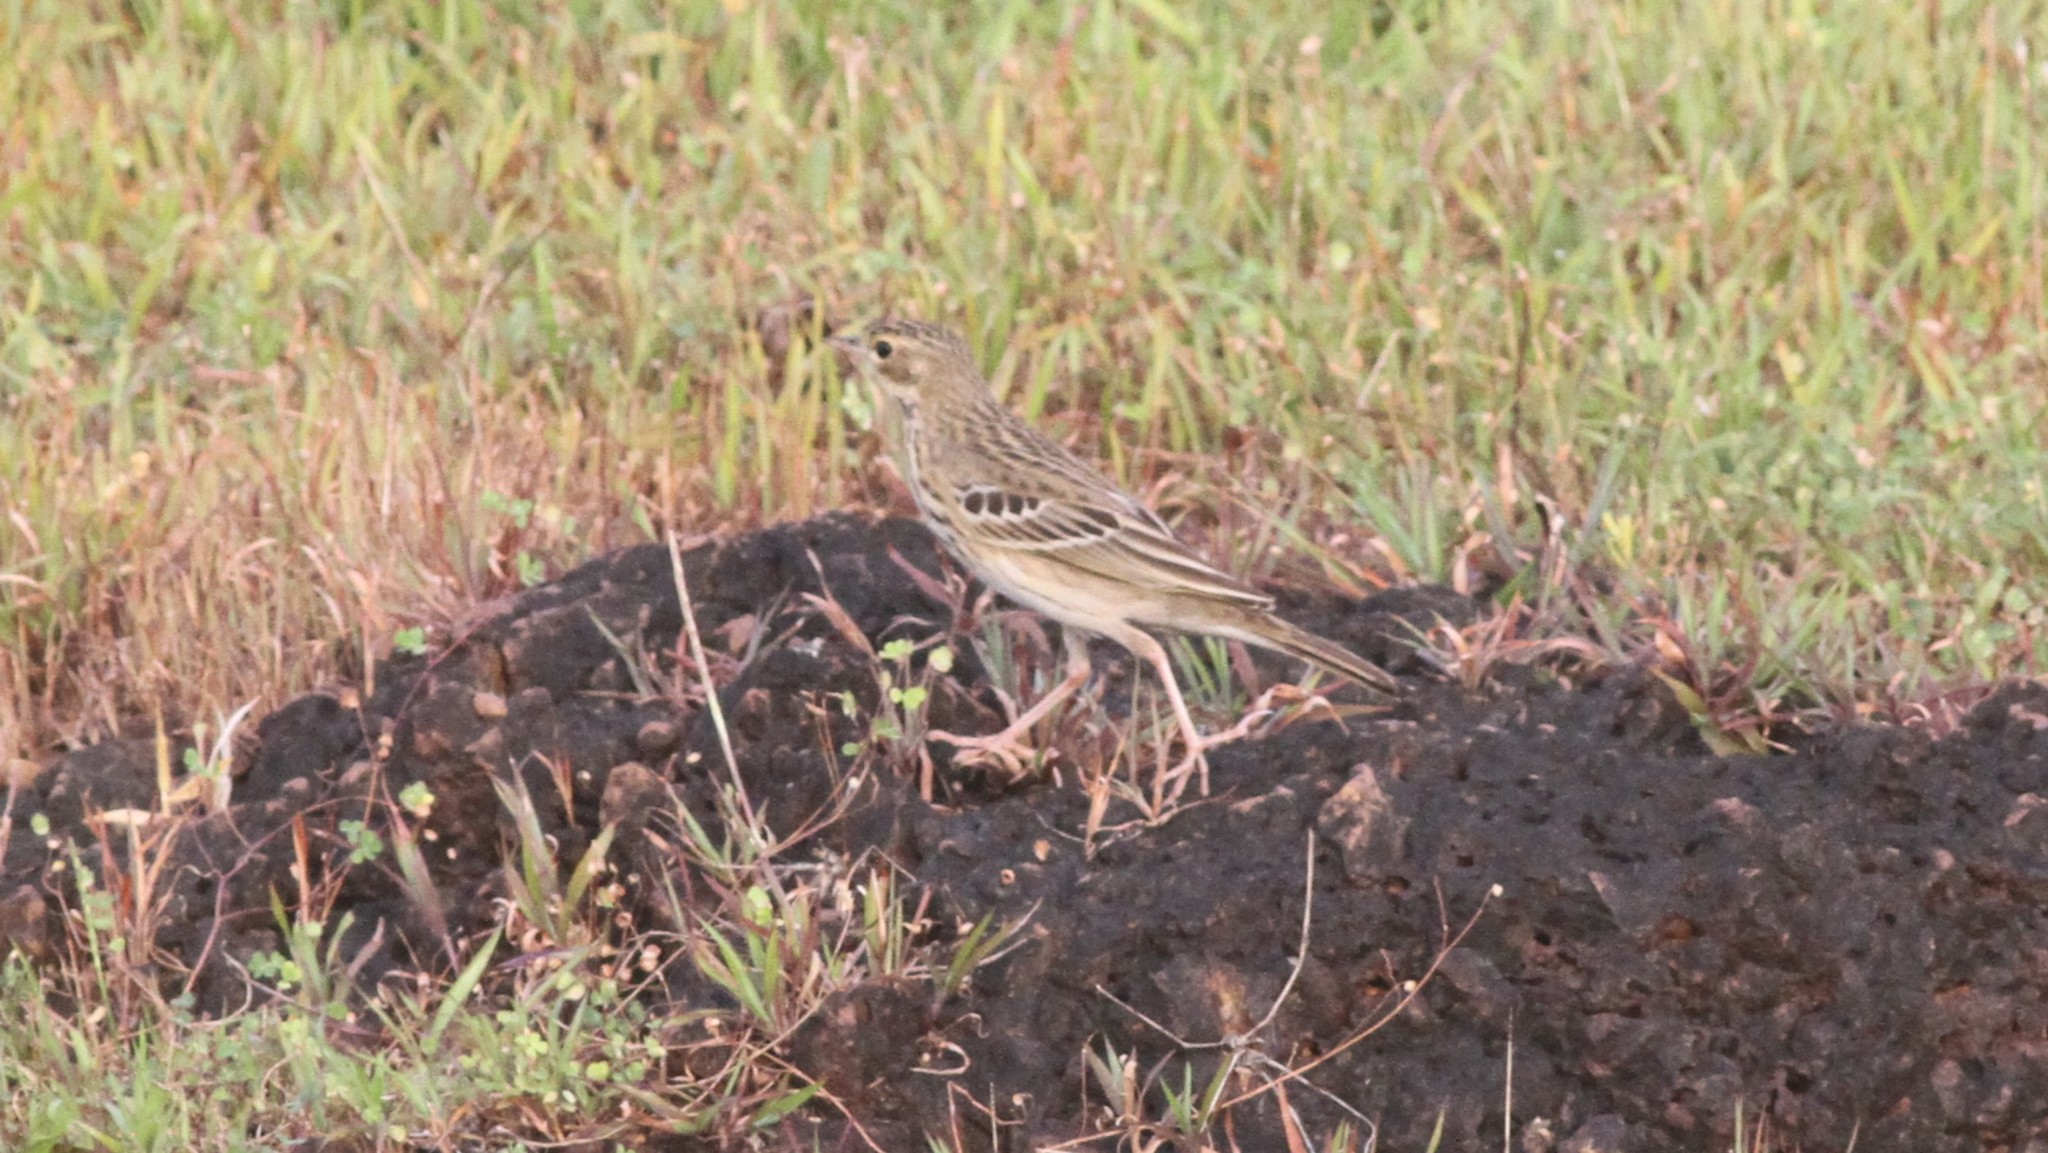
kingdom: Animalia
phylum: Chordata
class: Aves
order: Passeriformes
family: Motacillidae
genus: Anthus
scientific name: Anthus trivialis
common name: Tree pipit
